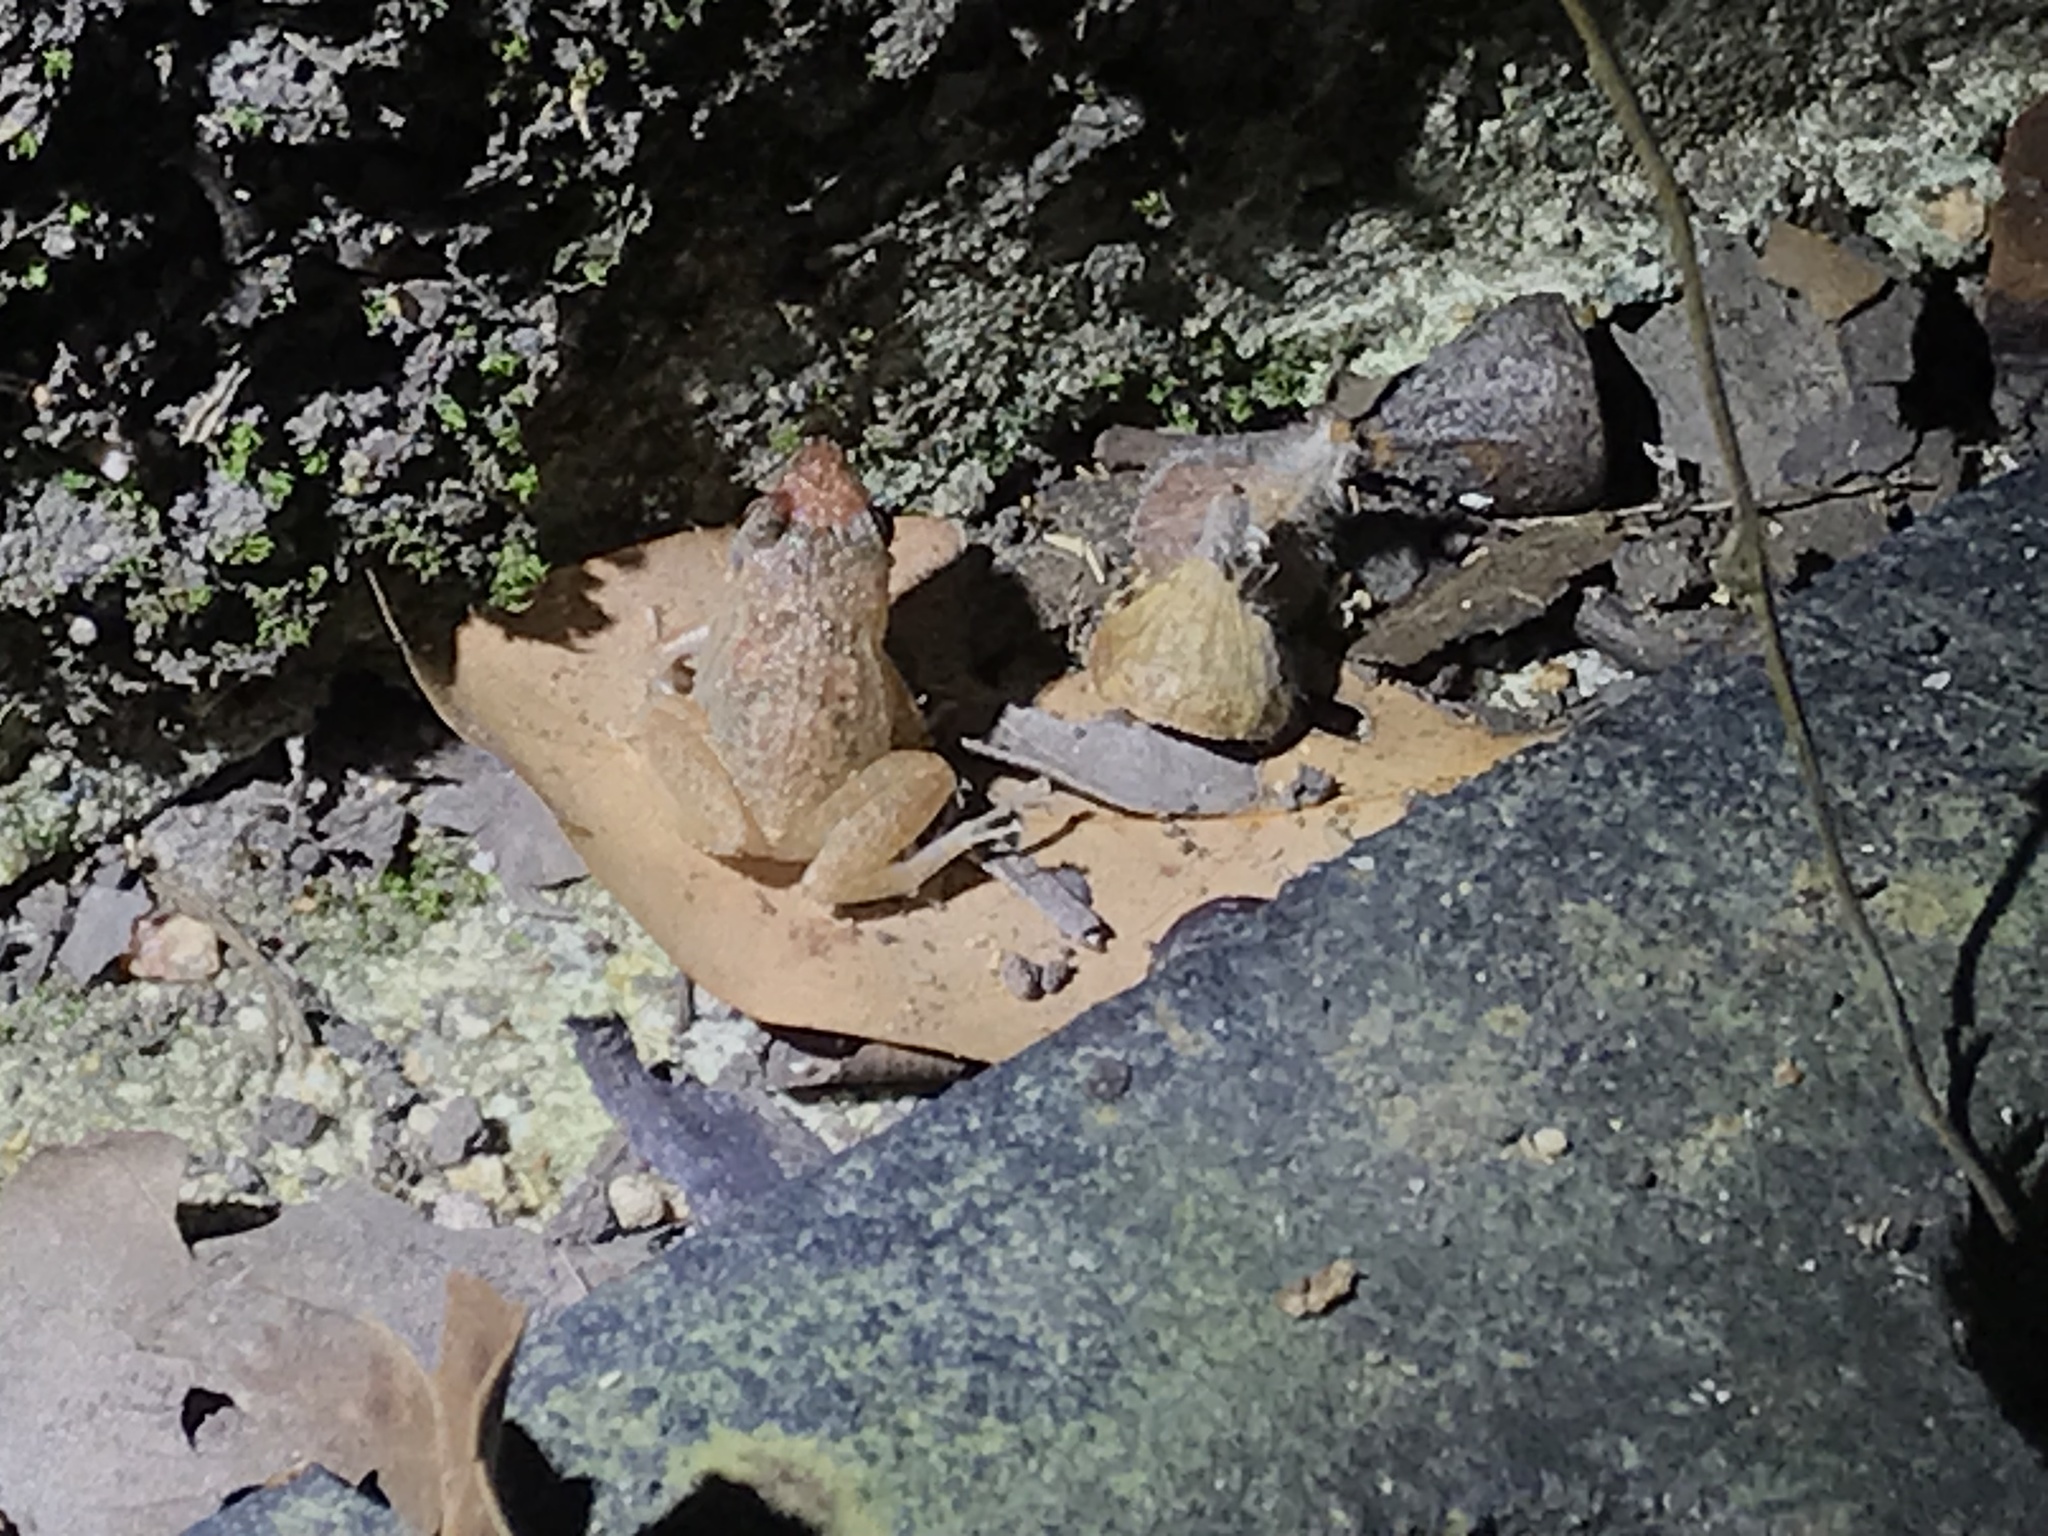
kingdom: Animalia
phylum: Chordata
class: Amphibia
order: Anura
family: Eleutherodactylidae
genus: Eleutherodactylus
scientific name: Eleutherodactylus planirostris
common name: Greenhouse frog
